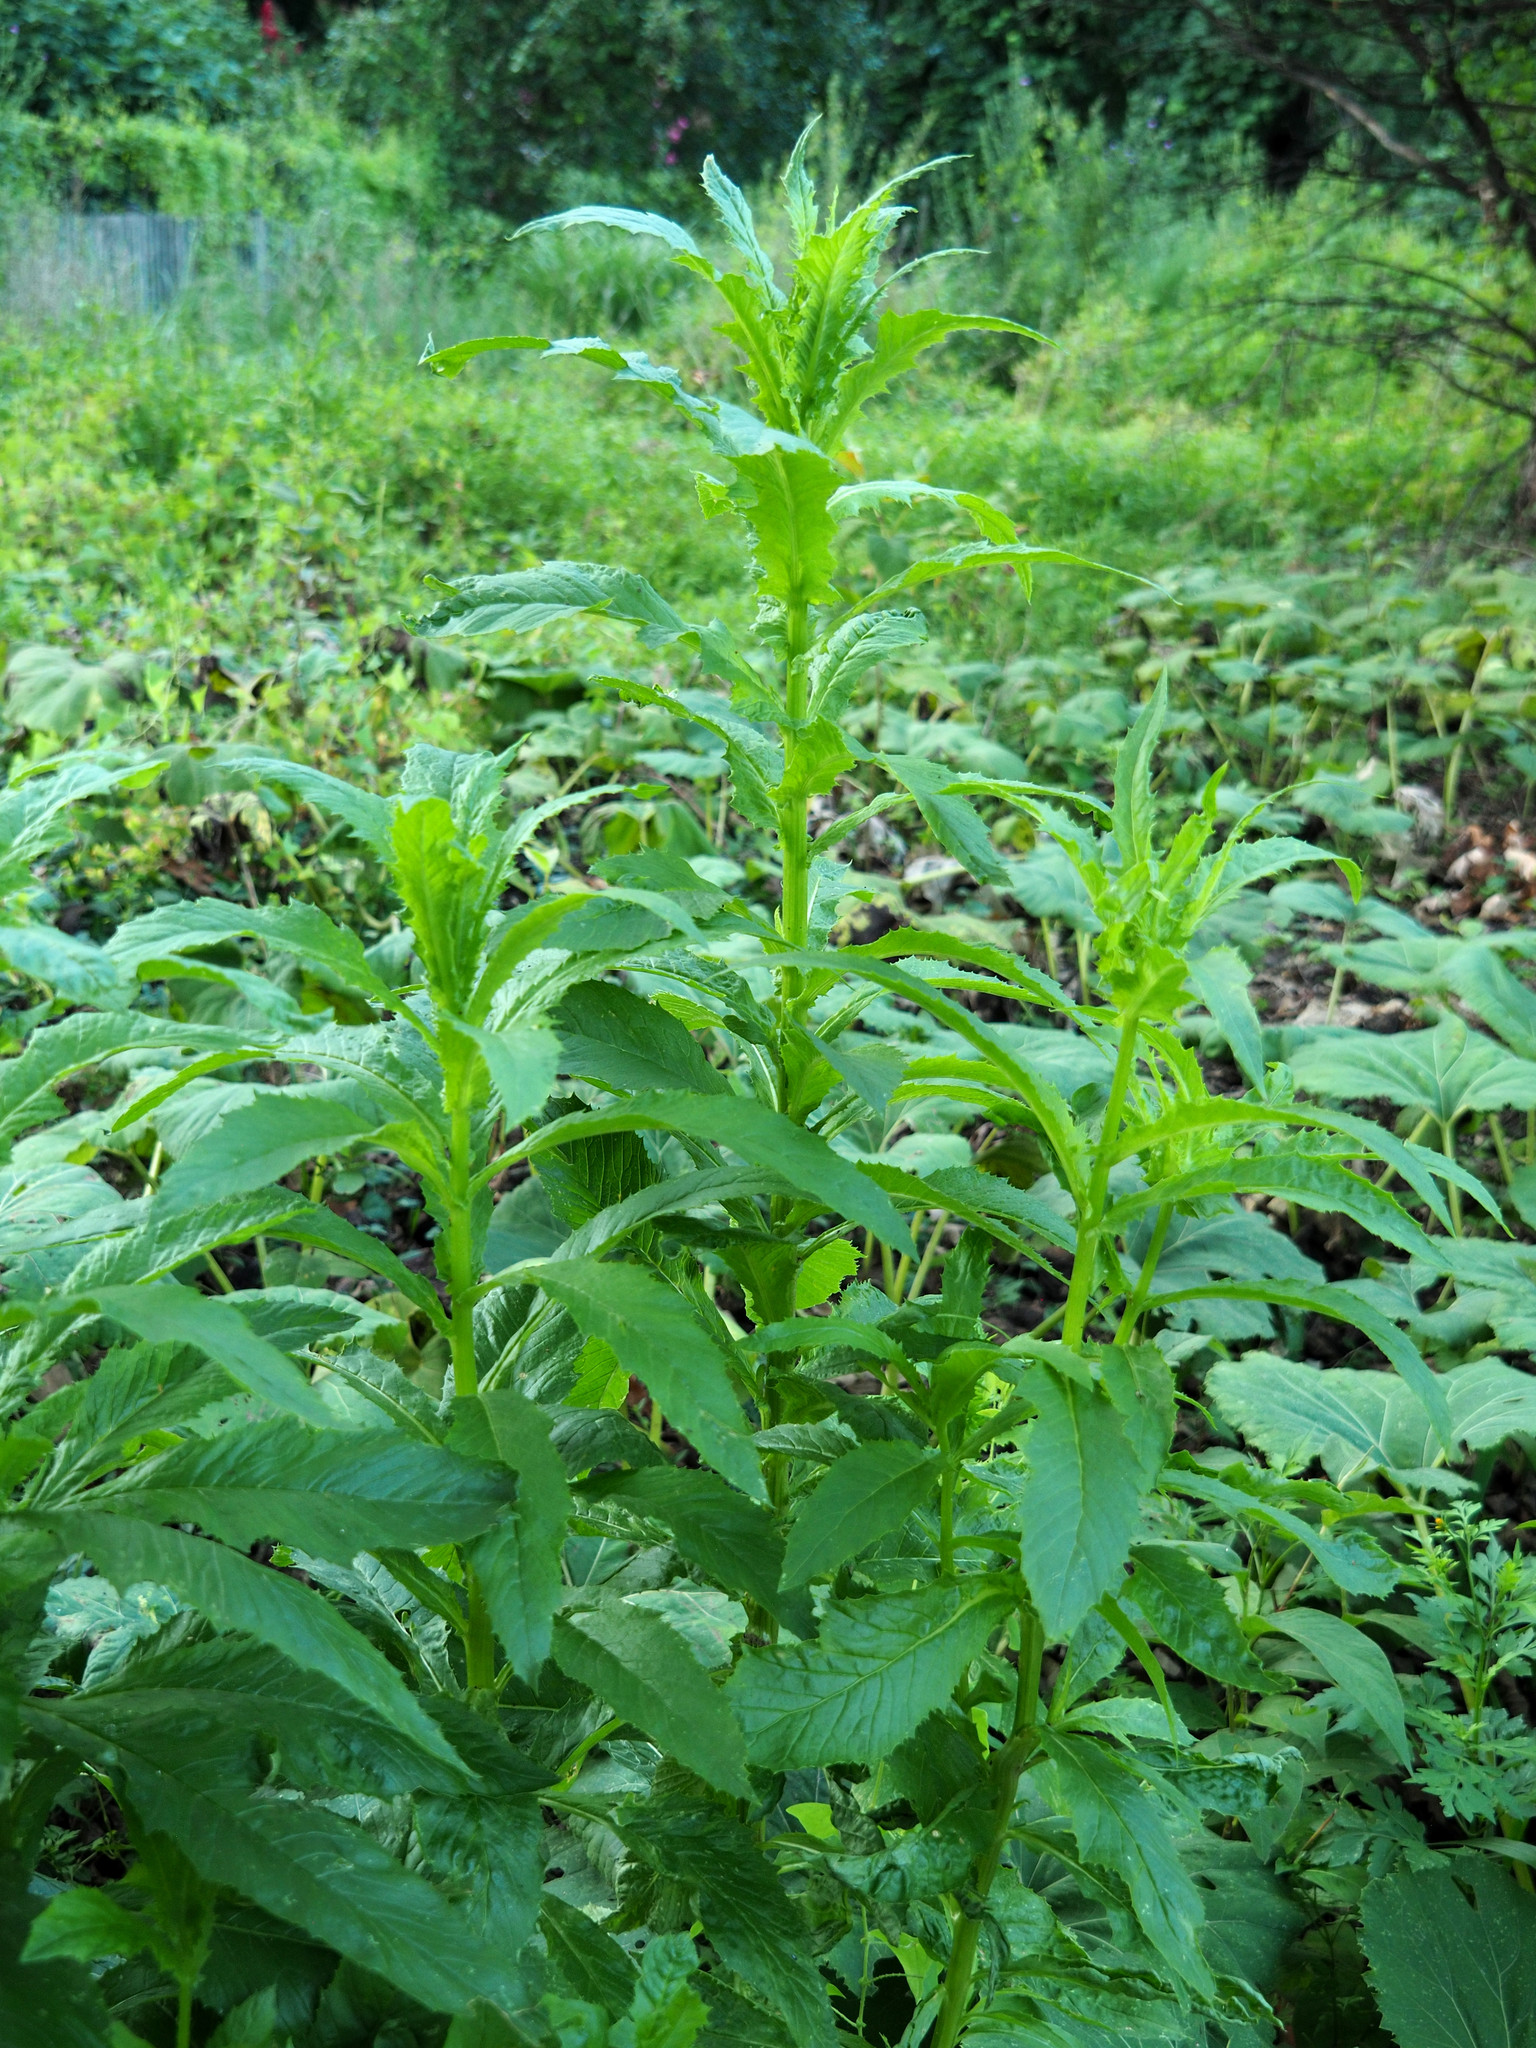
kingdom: Plantae
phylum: Tracheophyta
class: Magnoliopsida
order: Asterales
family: Asteraceae
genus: Erechtites
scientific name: Erechtites hieraciifolius
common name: American burnweed
